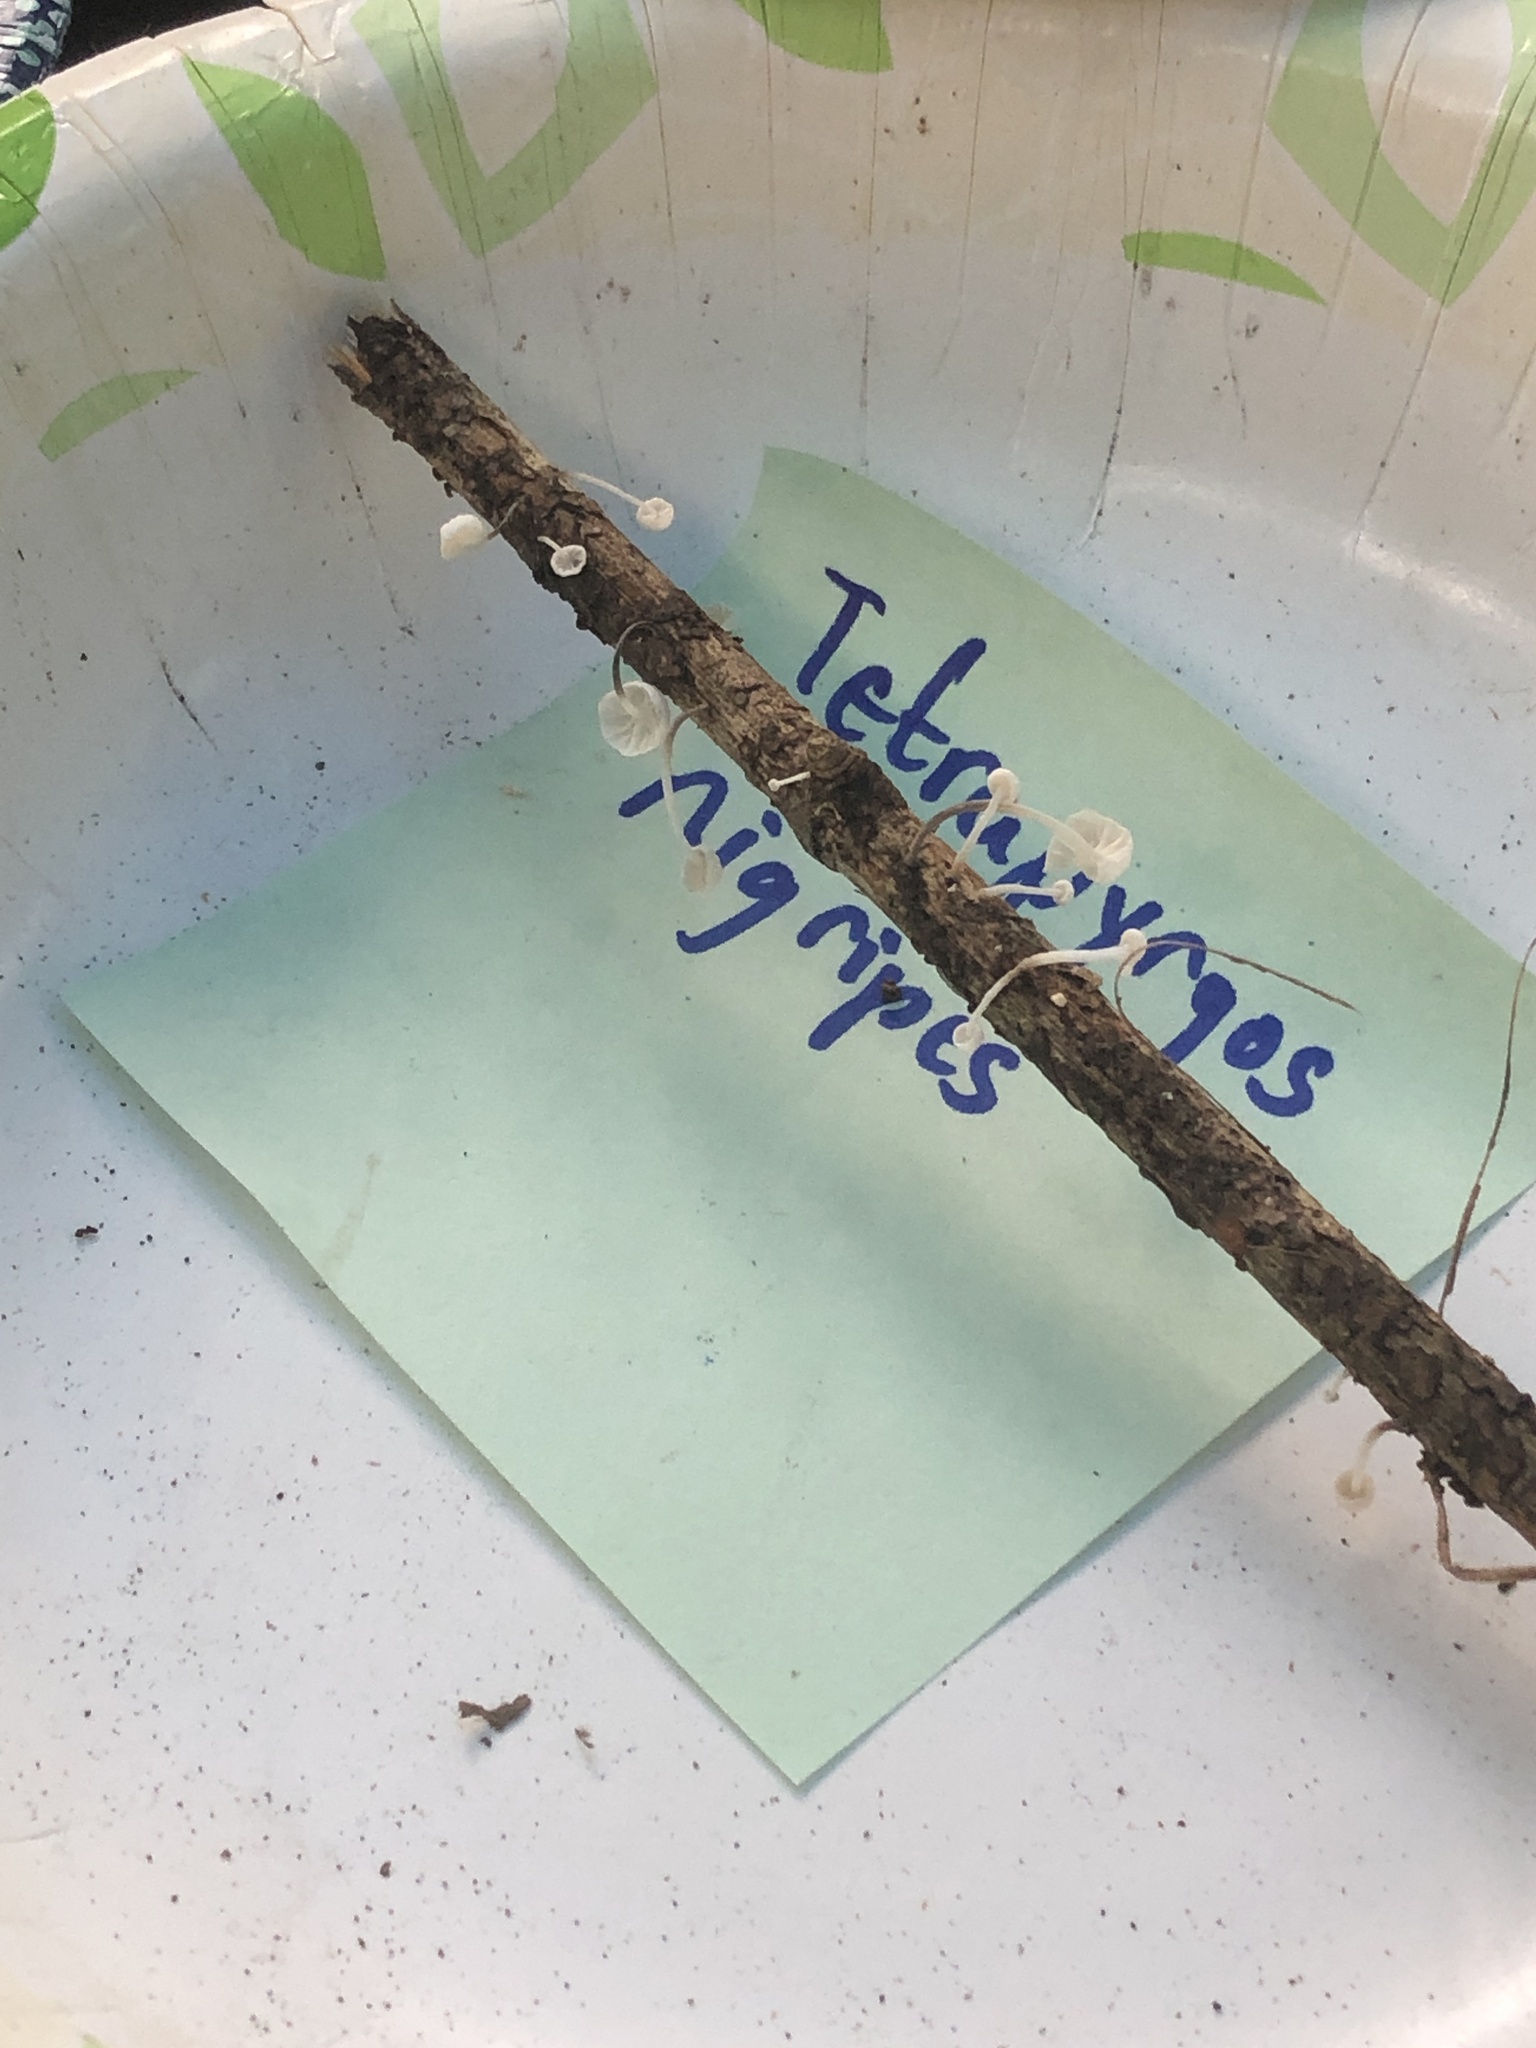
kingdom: Fungi
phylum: Basidiomycota
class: Agaricomycetes
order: Agaricales
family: Marasmiaceae
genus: Tetrapyrgos
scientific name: Tetrapyrgos nigripes
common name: Black-stalked marasmius
